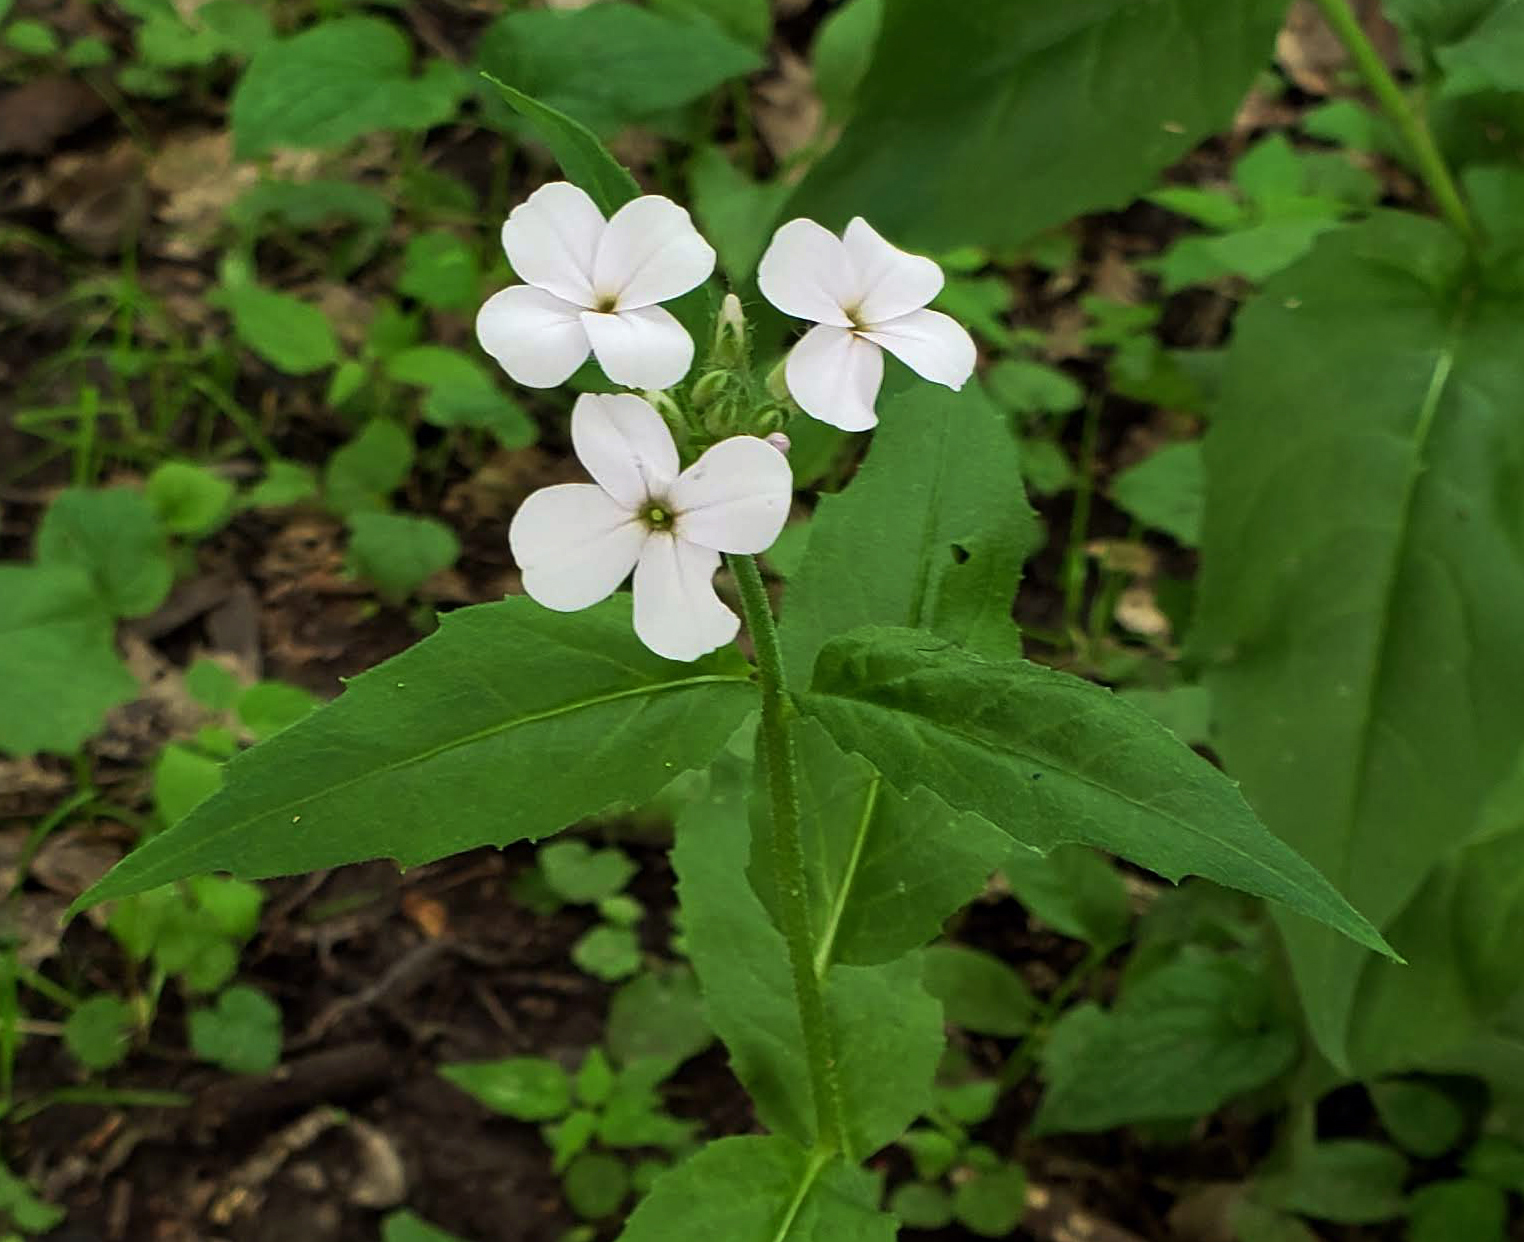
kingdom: Plantae
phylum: Tracheophyta
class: Magnoliopsida
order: Brassicales
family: Brassicaceae
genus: Hesperis
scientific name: Hesperis matronalis
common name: Dame's-violet
